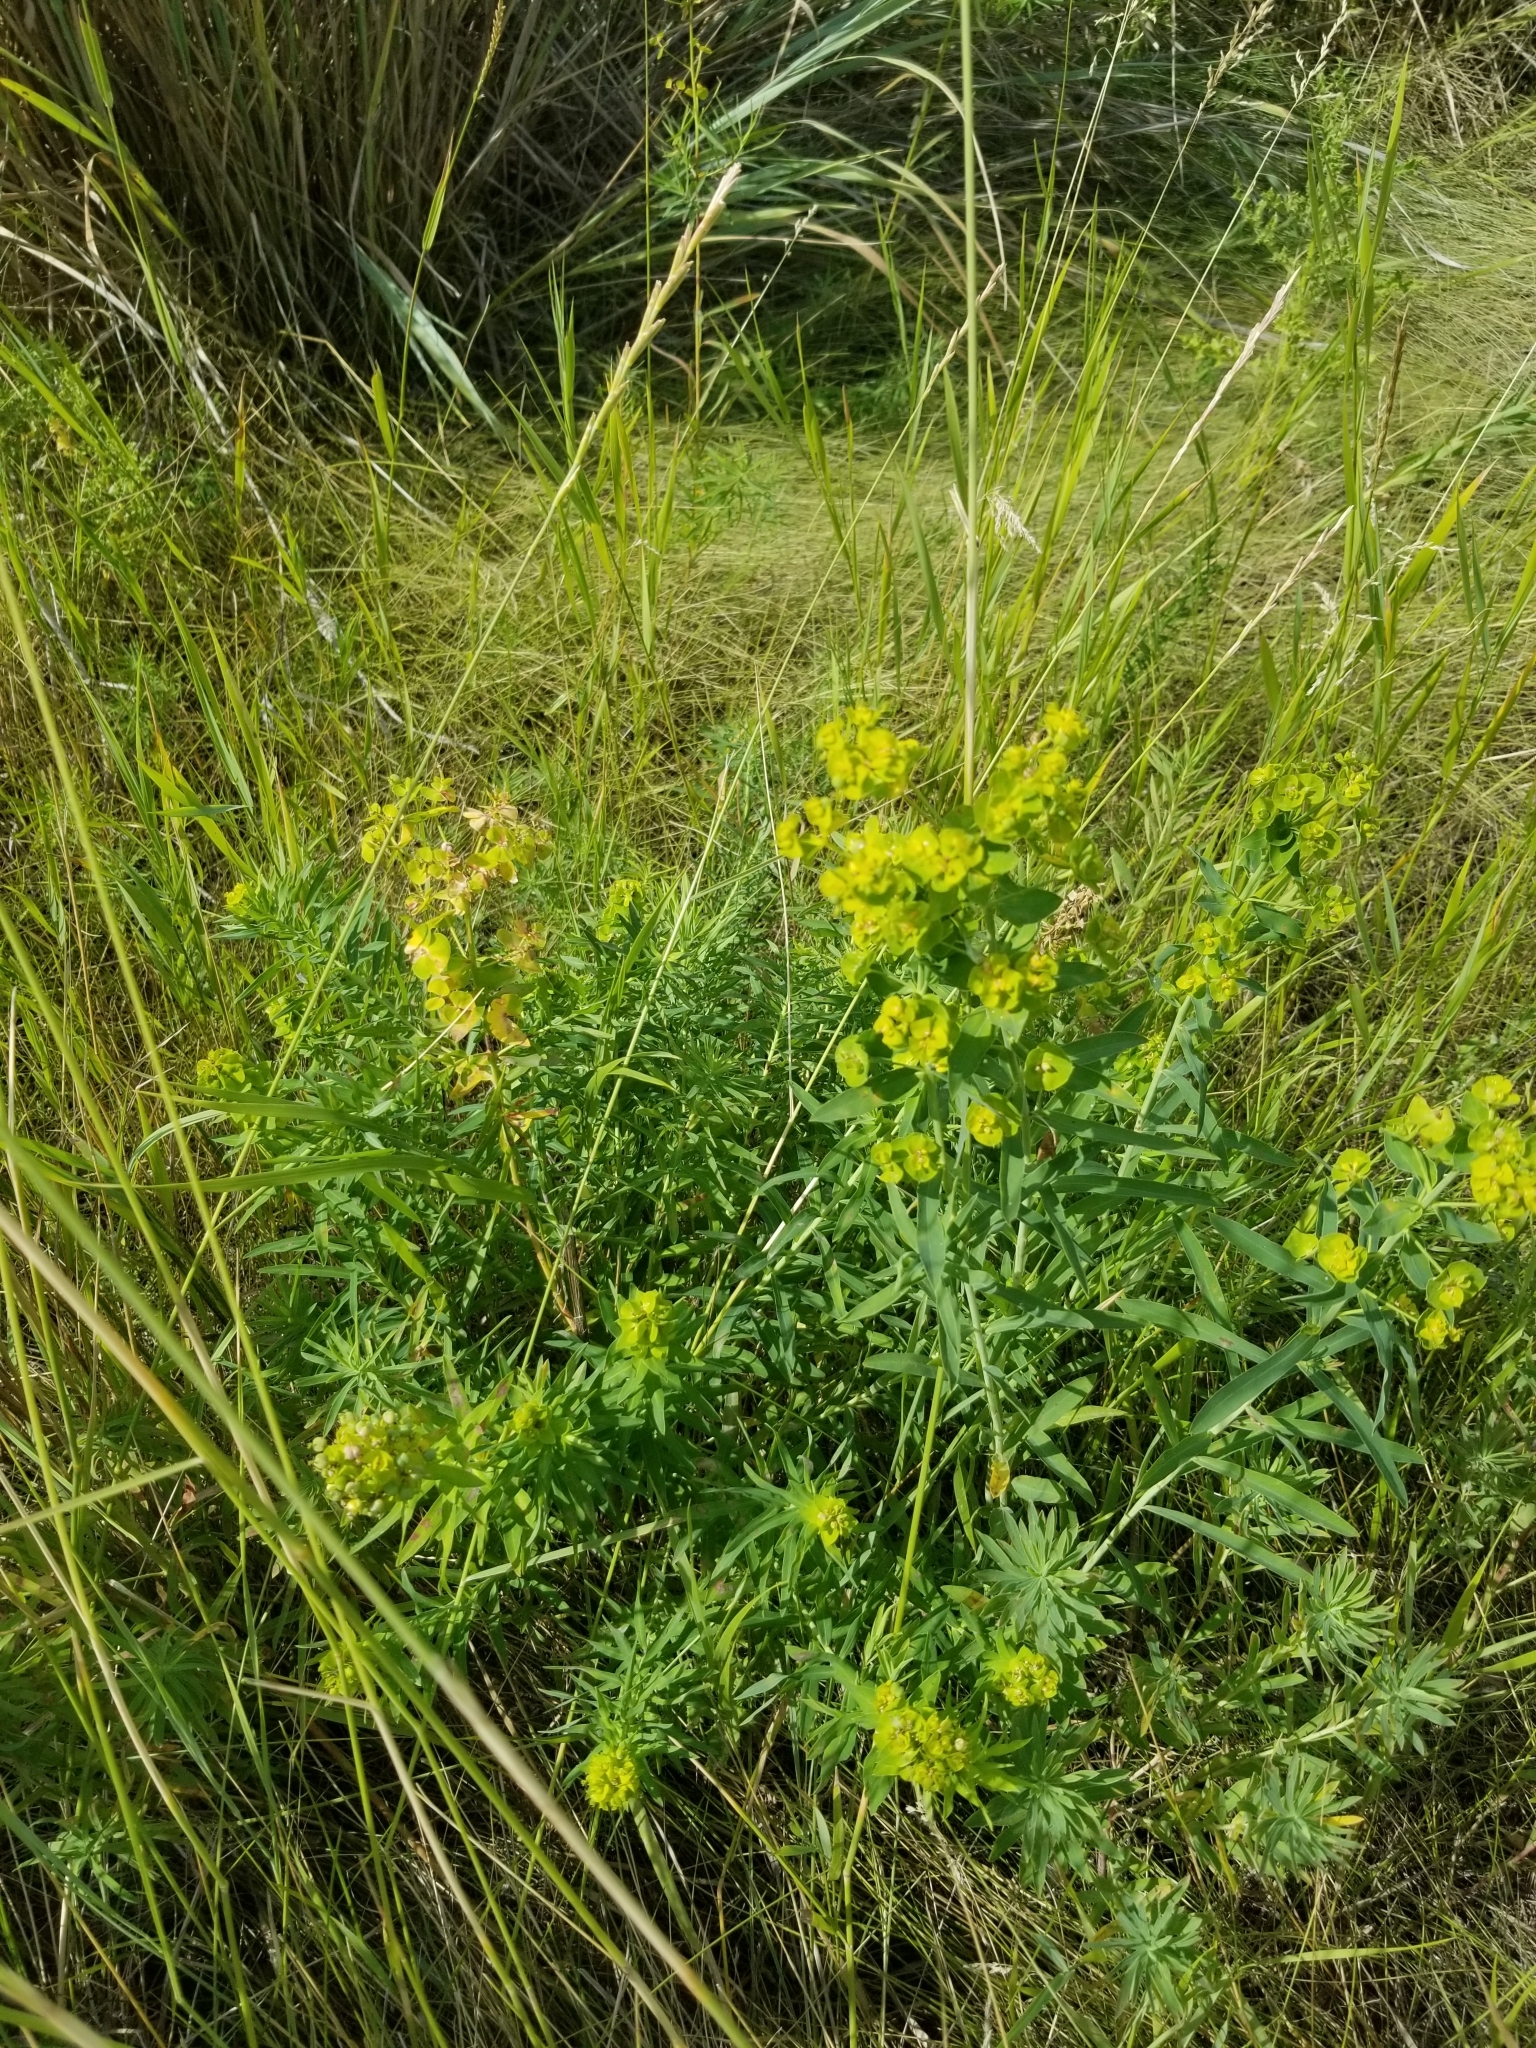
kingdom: Plantae
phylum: Tracheophyta
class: Magnoliopsida
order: Malpighiales
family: Euphorbiaceae
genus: Euphorbia
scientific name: Euphorbia esula
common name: Leafy spurge
